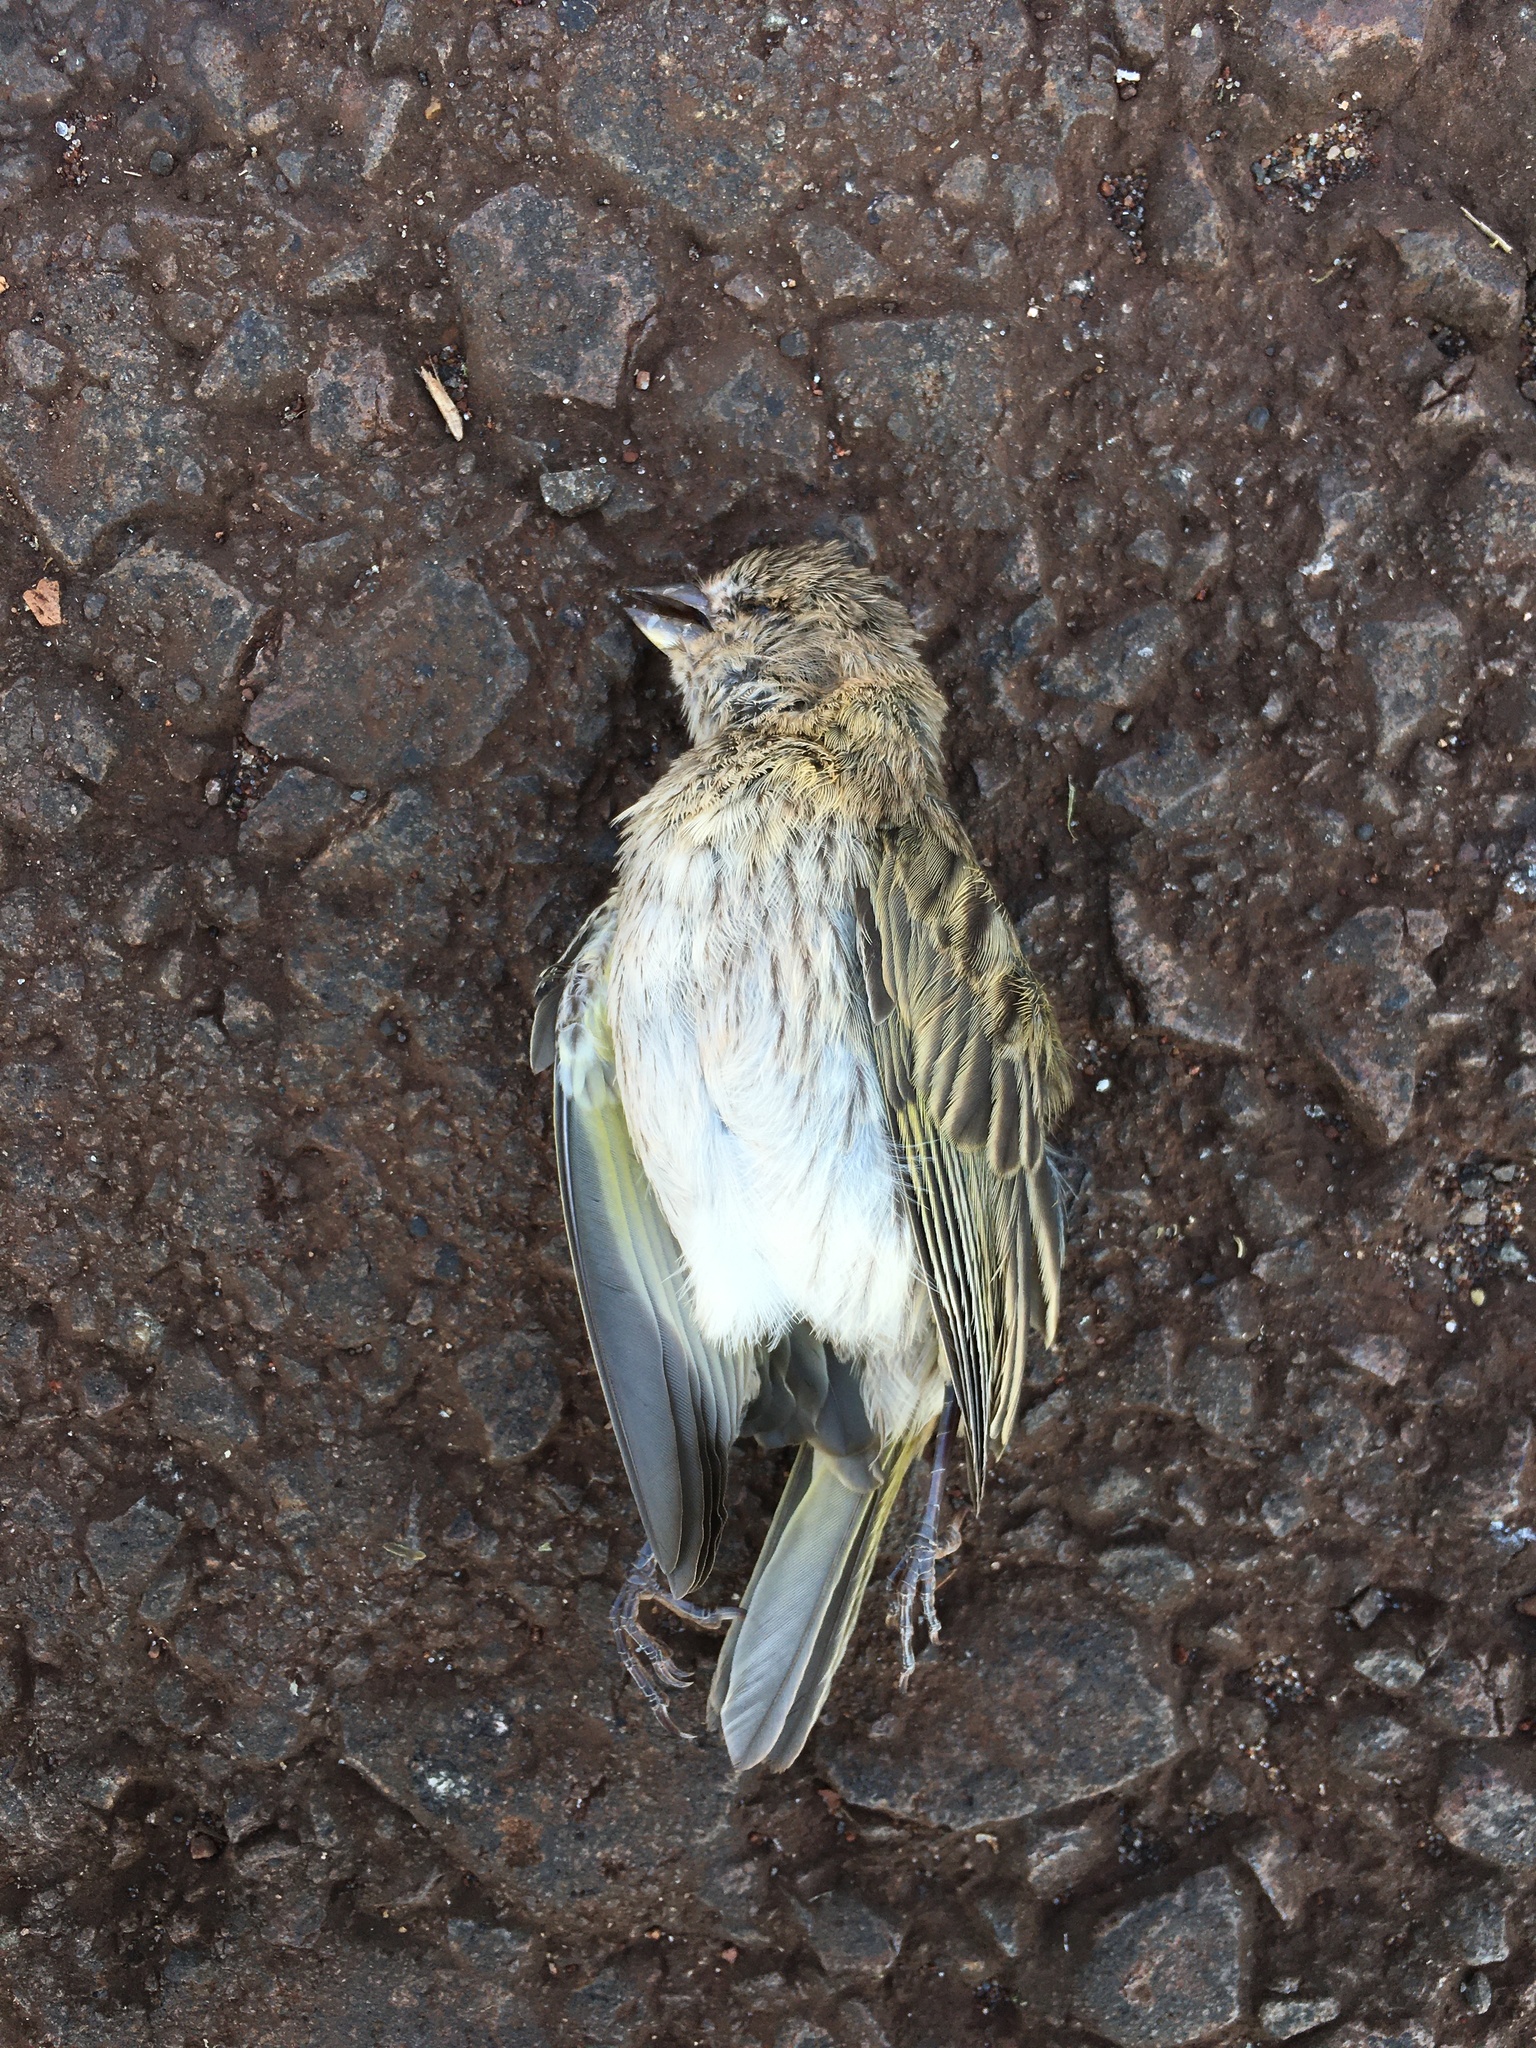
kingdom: Animalia
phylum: Chordata
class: Aves
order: Passeriformes
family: Thraupidae
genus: Sicalis
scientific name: Sicalis flaveola
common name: Saffron finch
